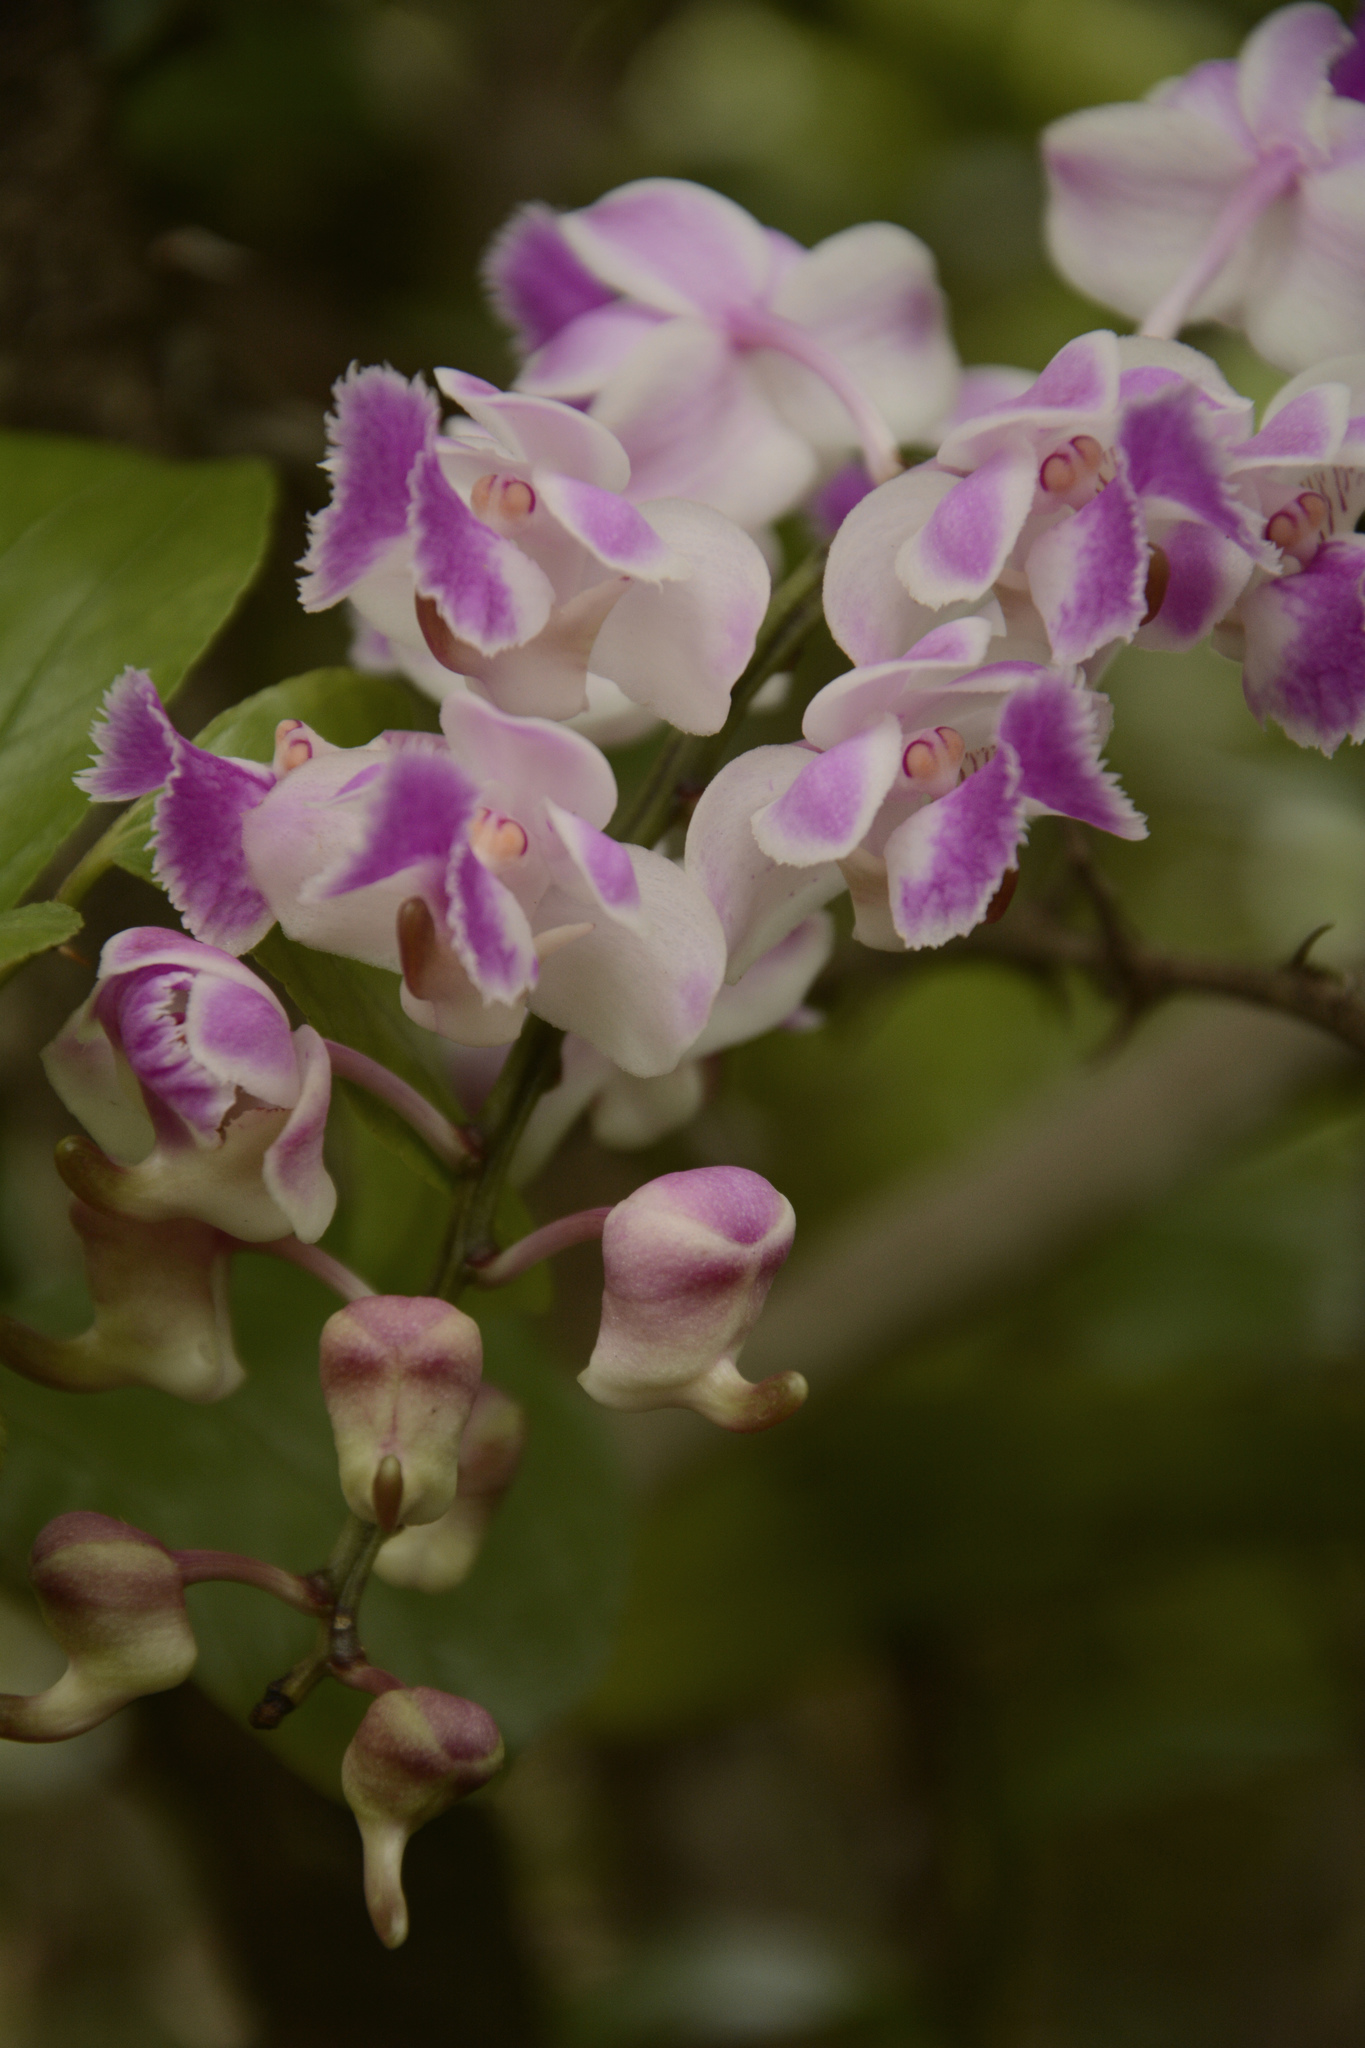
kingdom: Plantae
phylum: Tracheophyta
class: Liliopsida
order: Asparagales
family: Orchidaceae
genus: Aerides
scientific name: Aerides crispa
